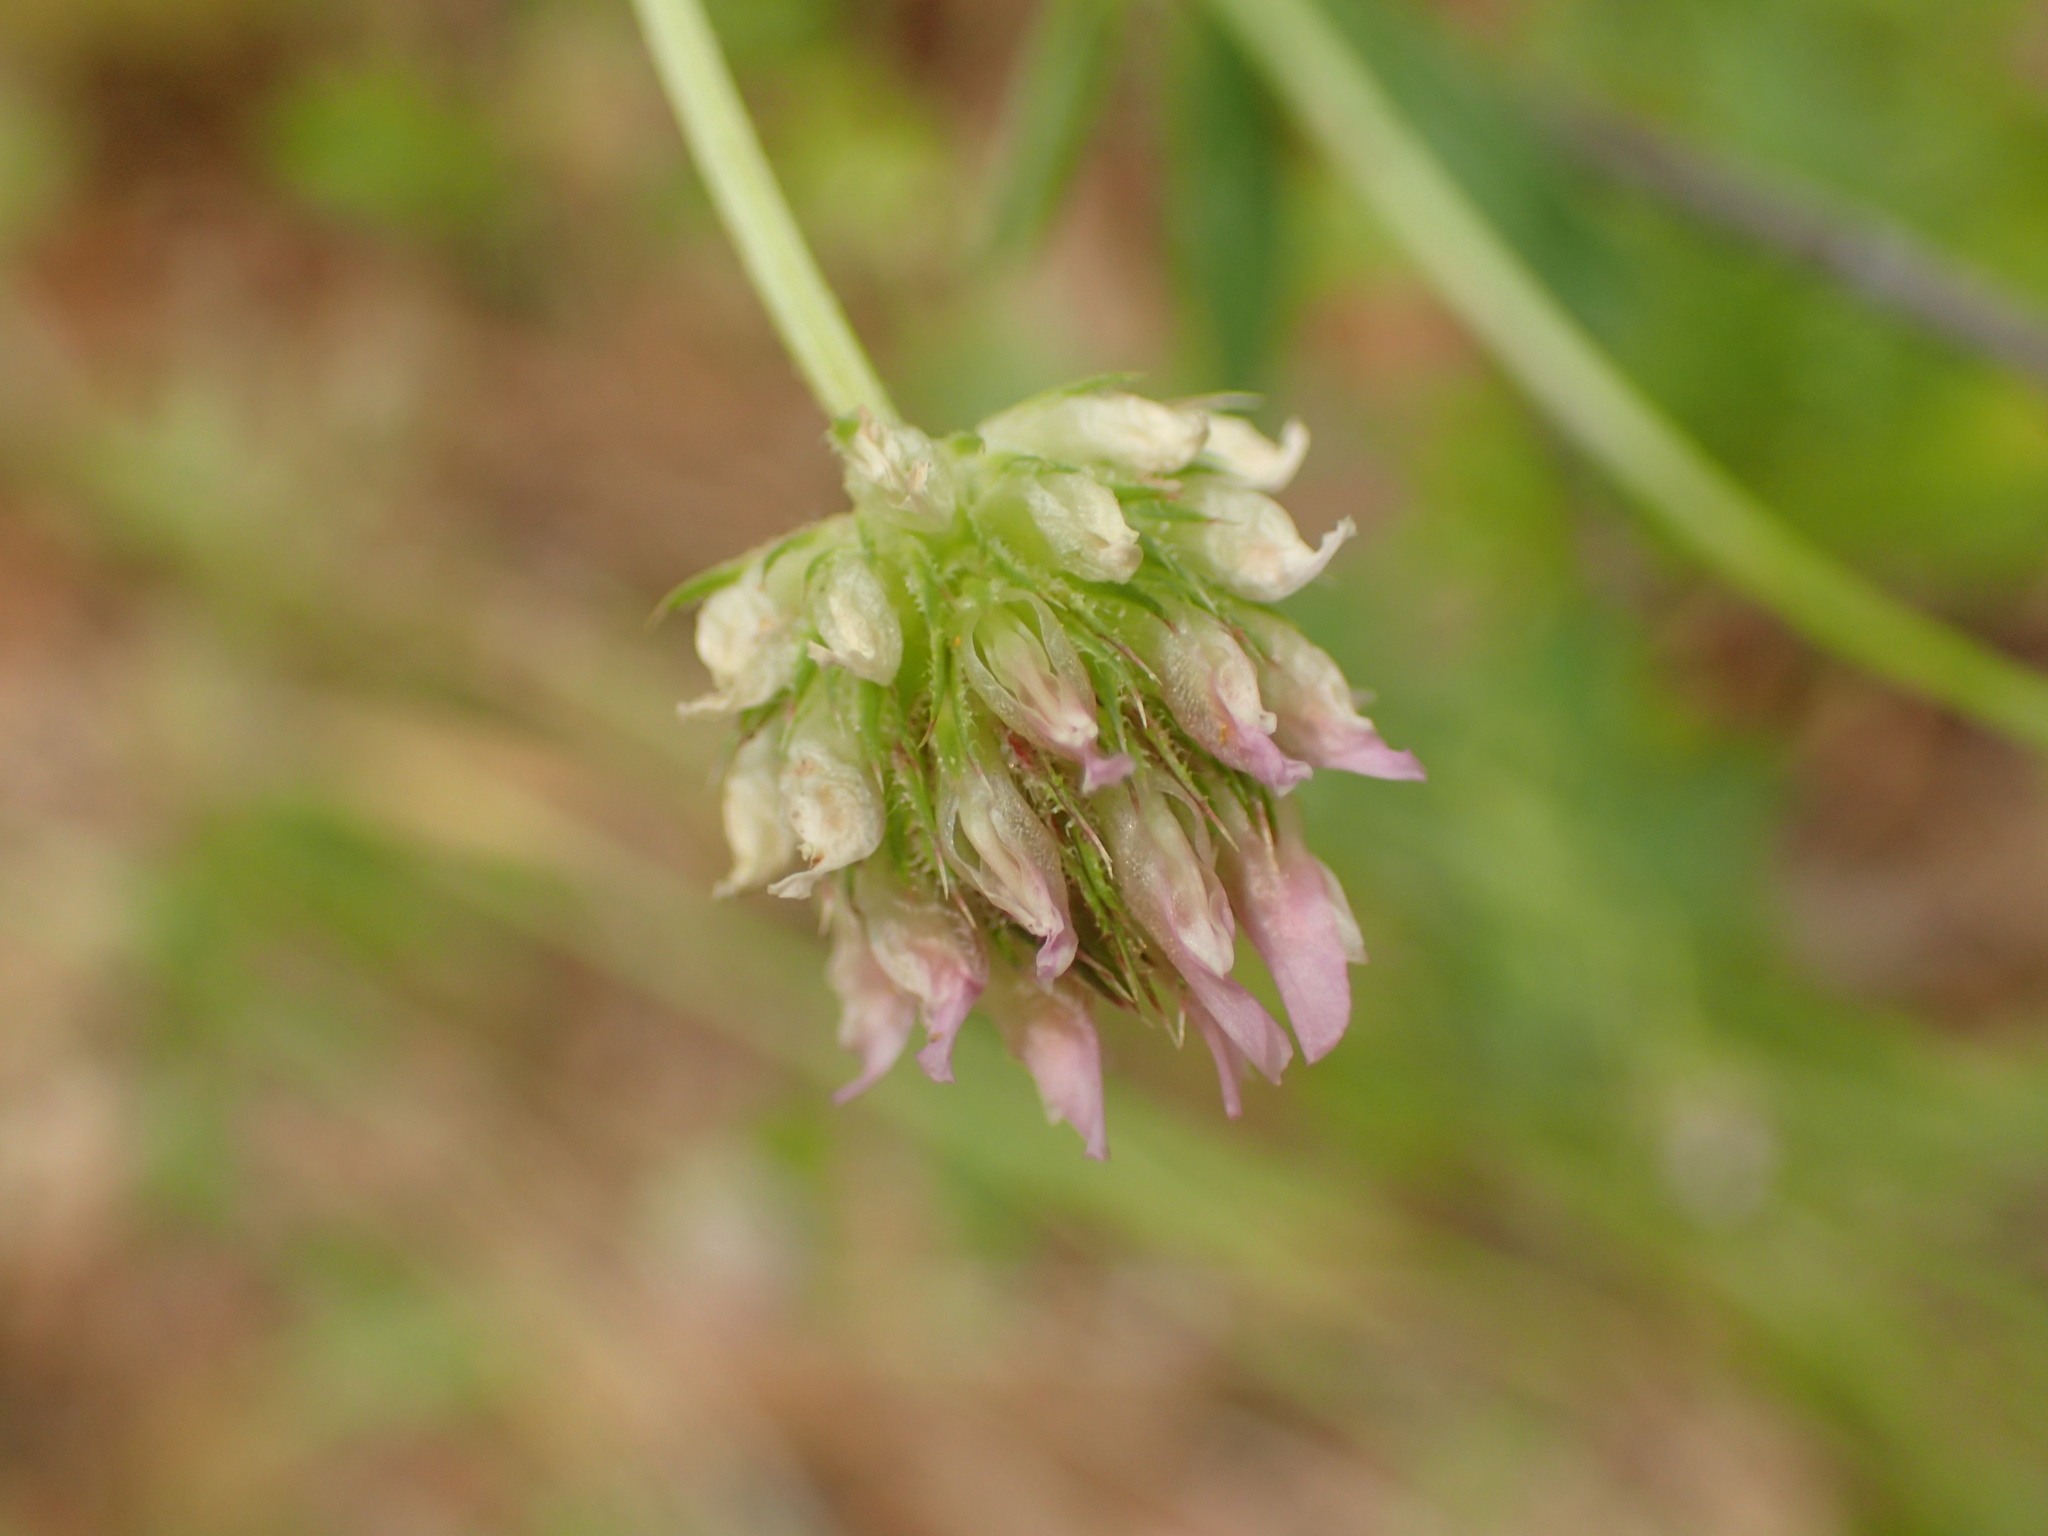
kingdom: Plantae
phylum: Tracheophyta
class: Magnoliopsida
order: Fabales
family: Fabaceae
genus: Trifolium
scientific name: Trifolium ciliolatum
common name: Foothill clover
